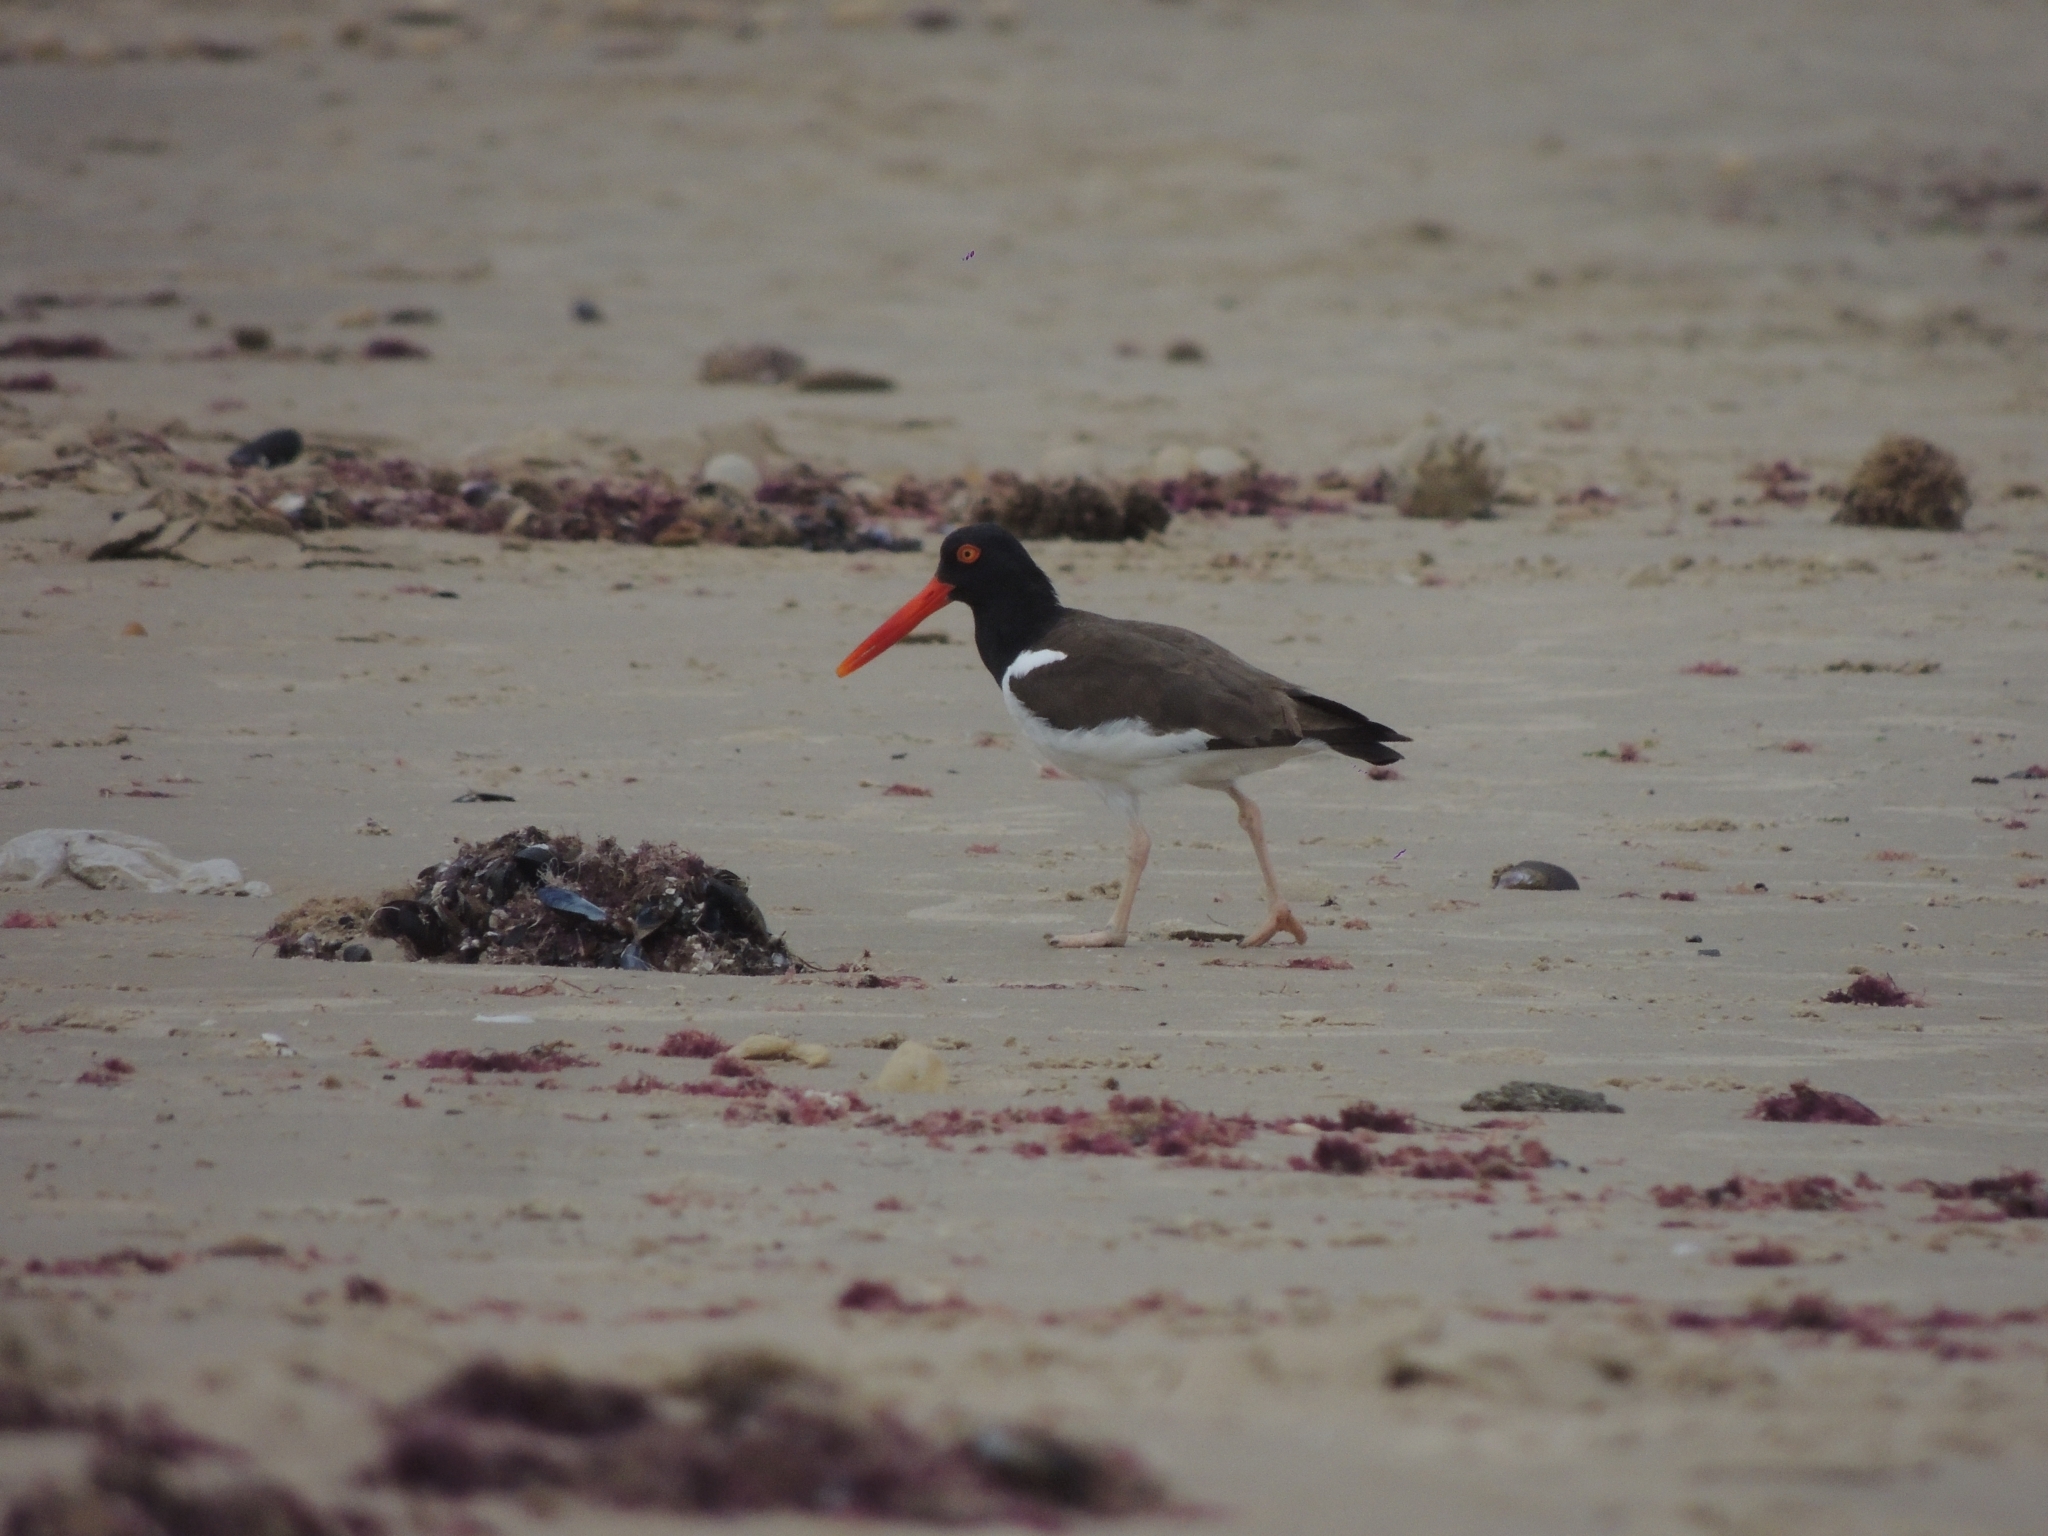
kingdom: Animalia
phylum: Chordata
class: Aves
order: Charadriiformes
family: Haematopodidae
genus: Haematopus
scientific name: Haematopus palliatus
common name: American oystercatcher
